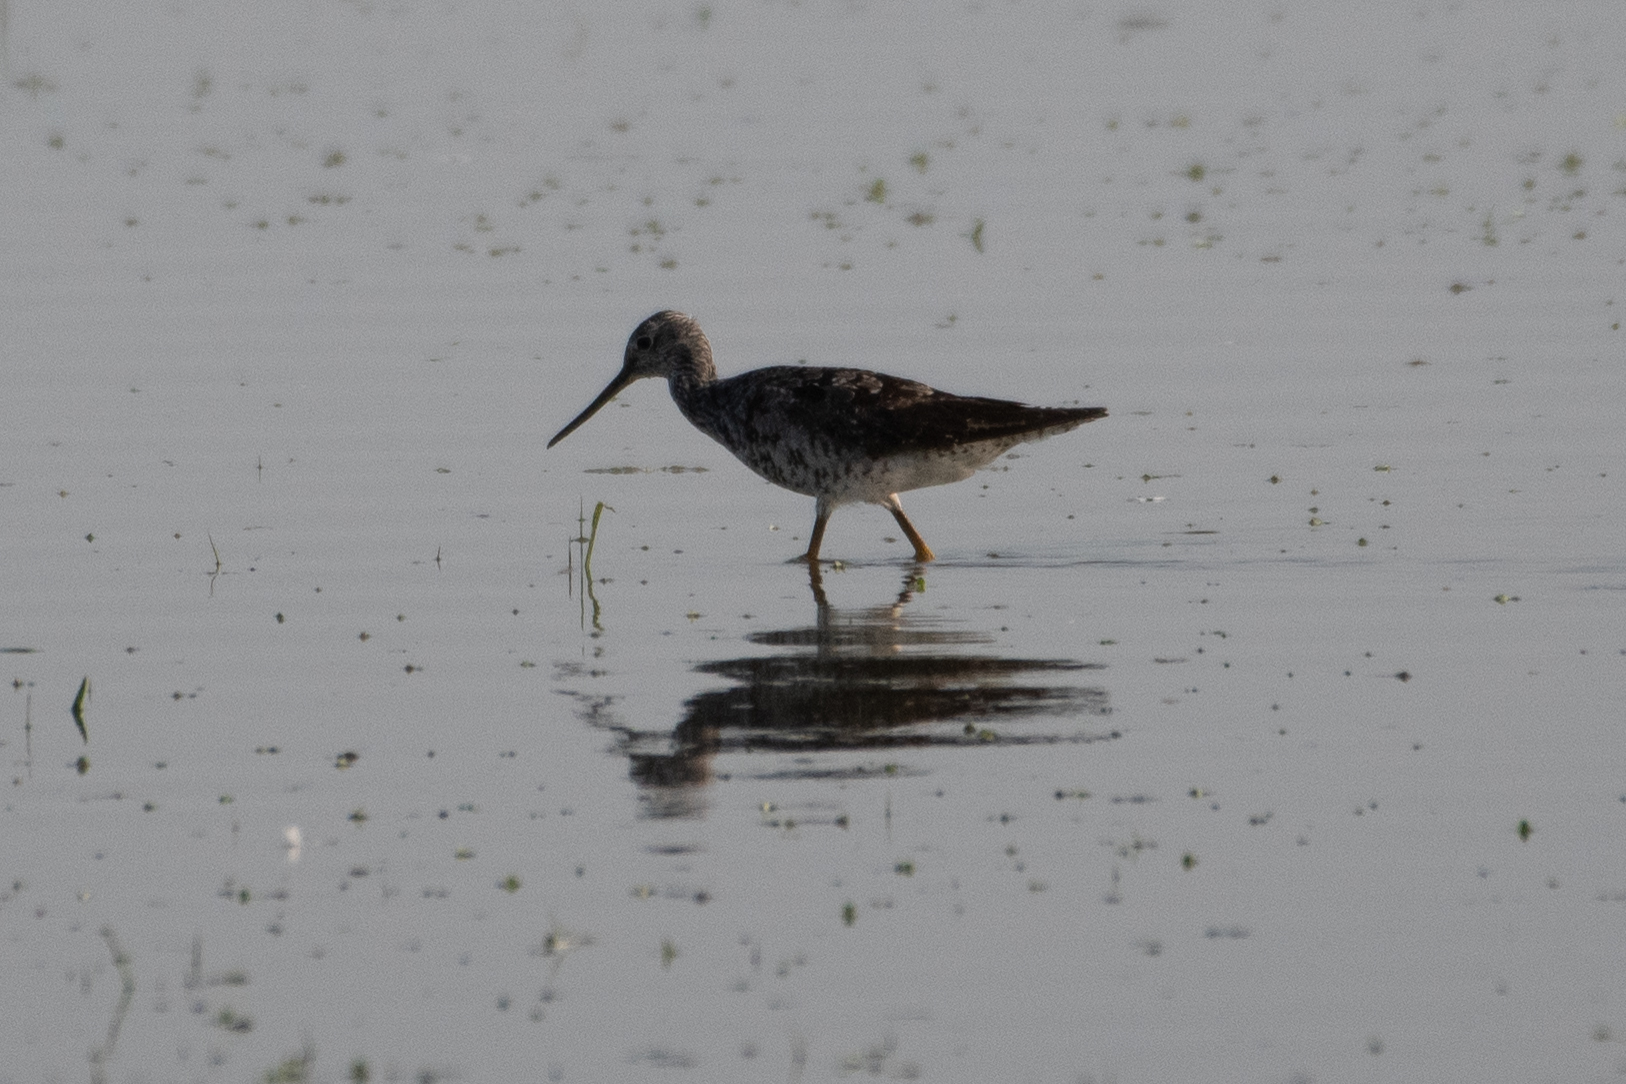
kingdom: Animalia
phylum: Chordata
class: Aves
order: Charadriiformes
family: Scolopacidae
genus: Tringa
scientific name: Tringa melanoleuca
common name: Greater yellowlegs
